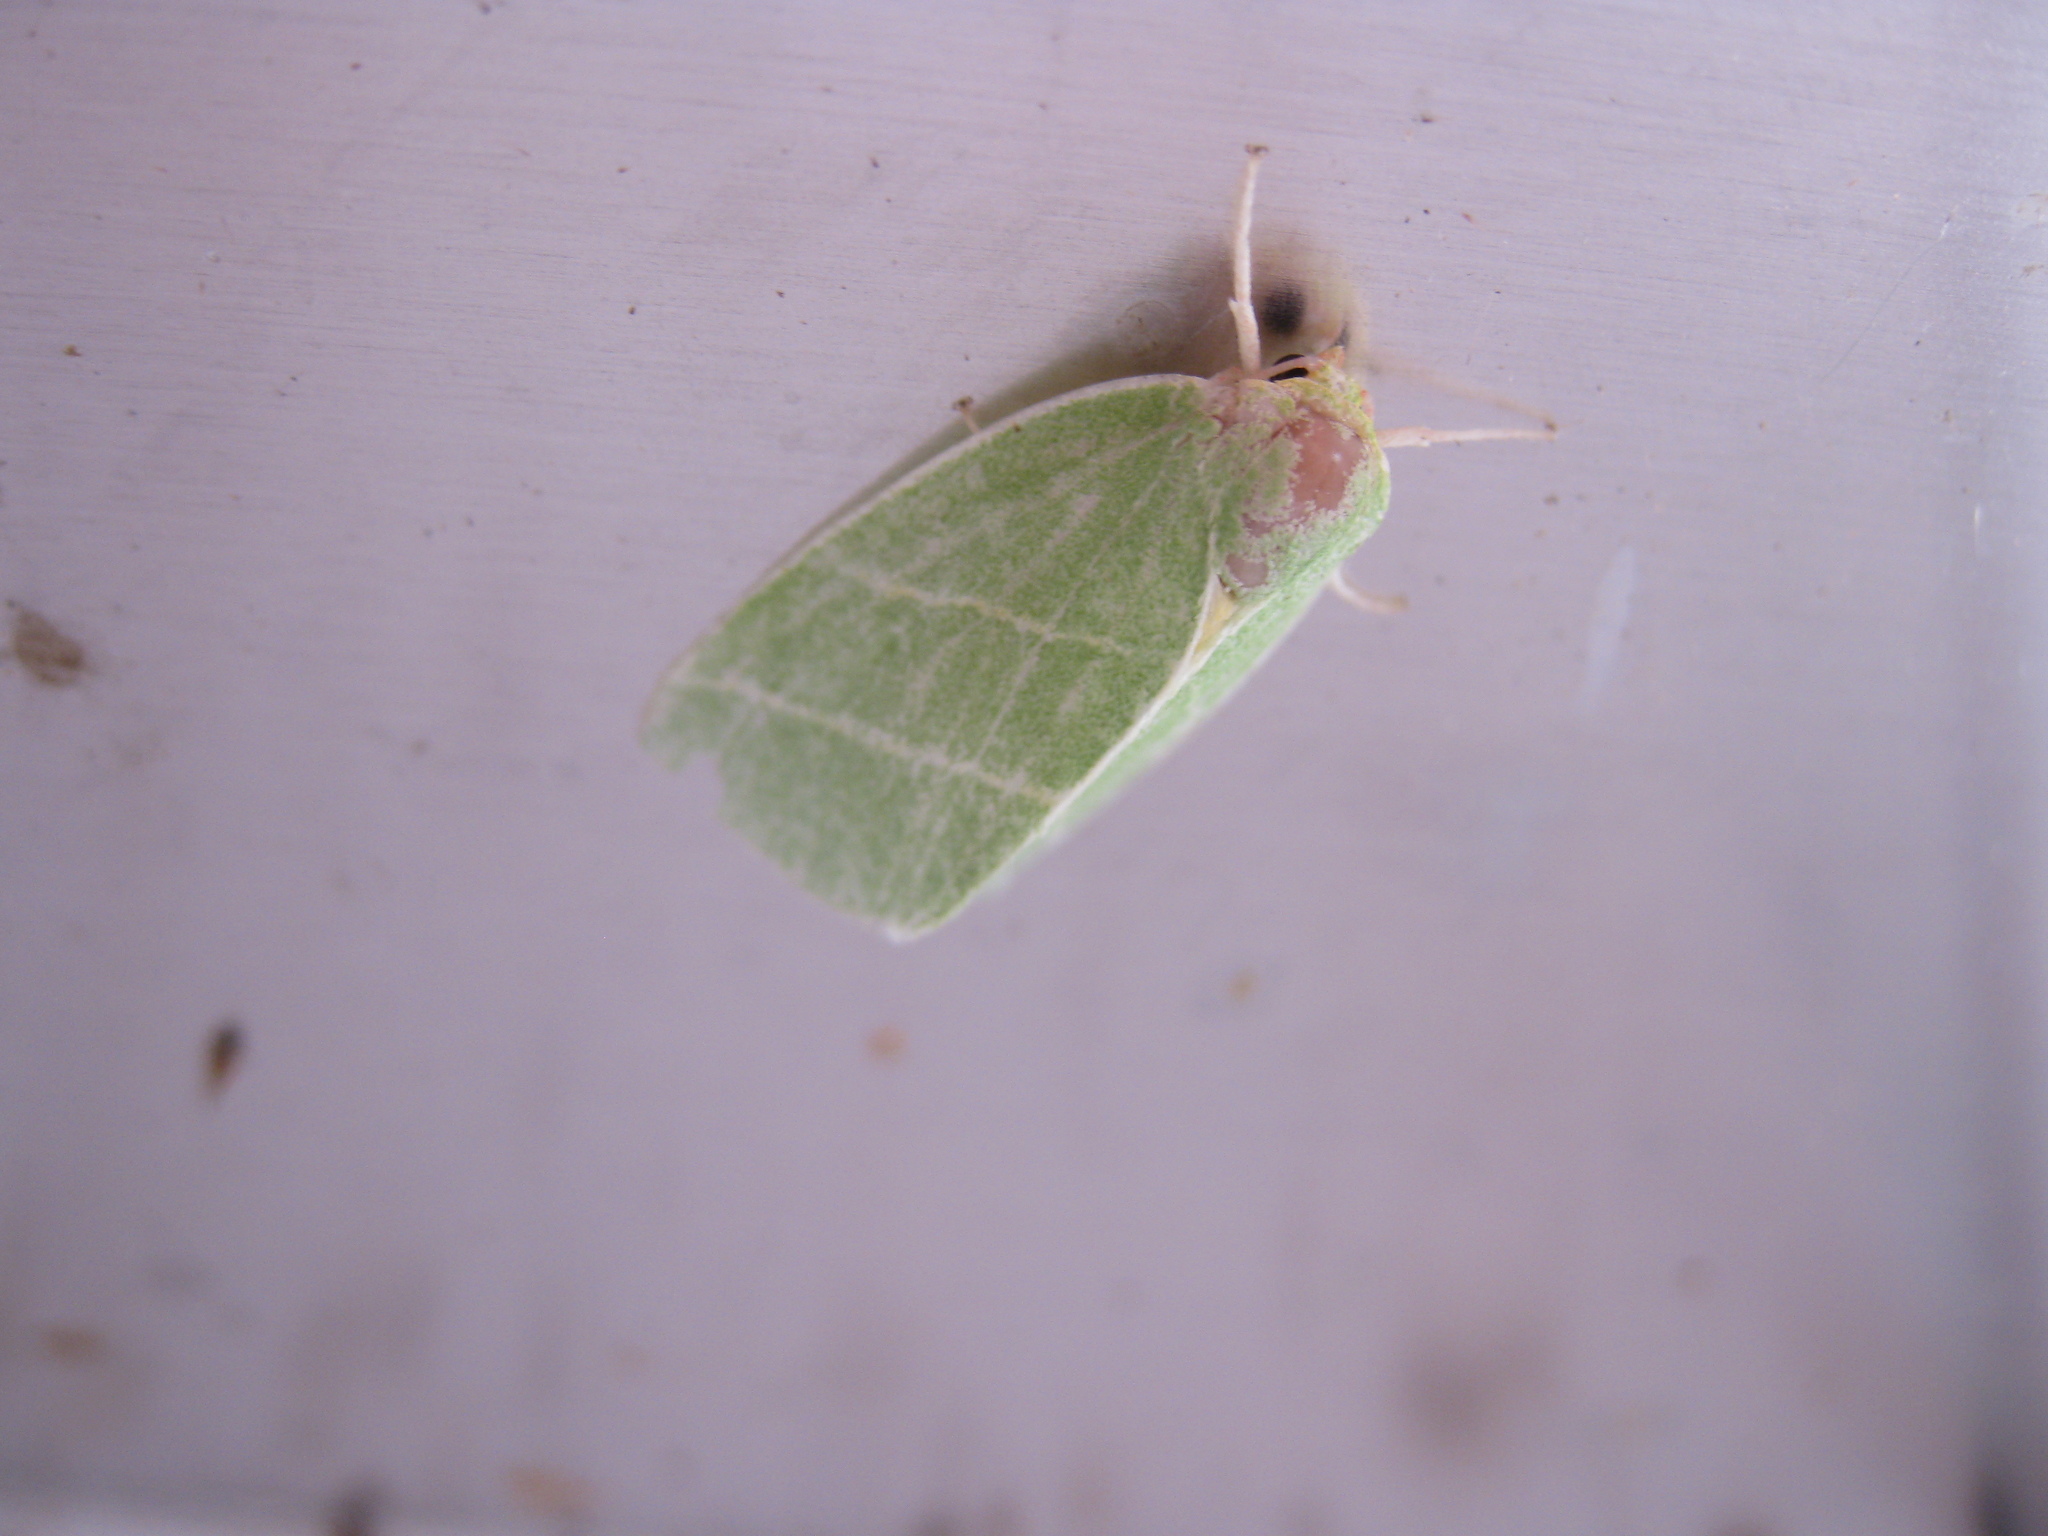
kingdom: Animalia
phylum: Arthropoda
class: Insecta
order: Lepidoptera
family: Nolidae
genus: Bena
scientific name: Bena bicolorana
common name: Scarce silver-lines
